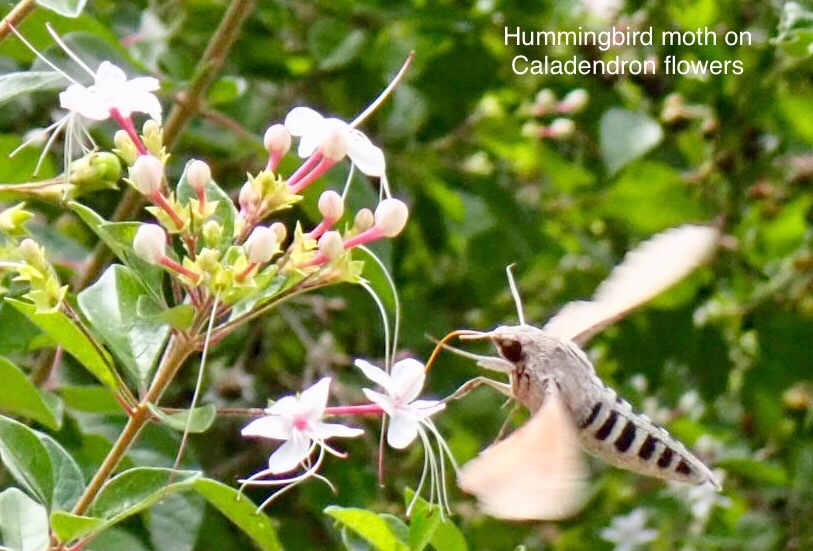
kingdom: Plantae
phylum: Tracheophyta
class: Magnoliopsida
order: Lamiales
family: Lamiaceae
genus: Volkameria
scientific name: Volkameria mollis
